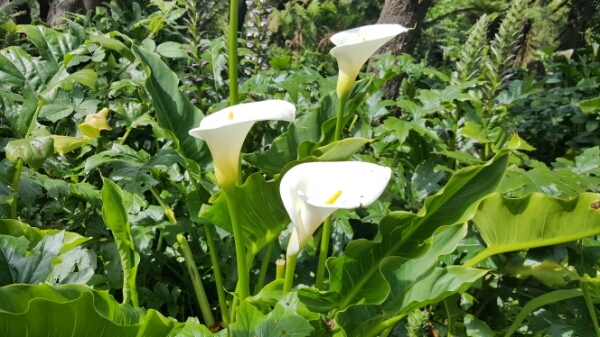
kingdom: Plantae
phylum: Tracheophyta
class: Liliopsida
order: Alismatales
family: Araceae
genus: Zantedeschia
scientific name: Zantedeschia aethiopica
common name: Altar-lily
